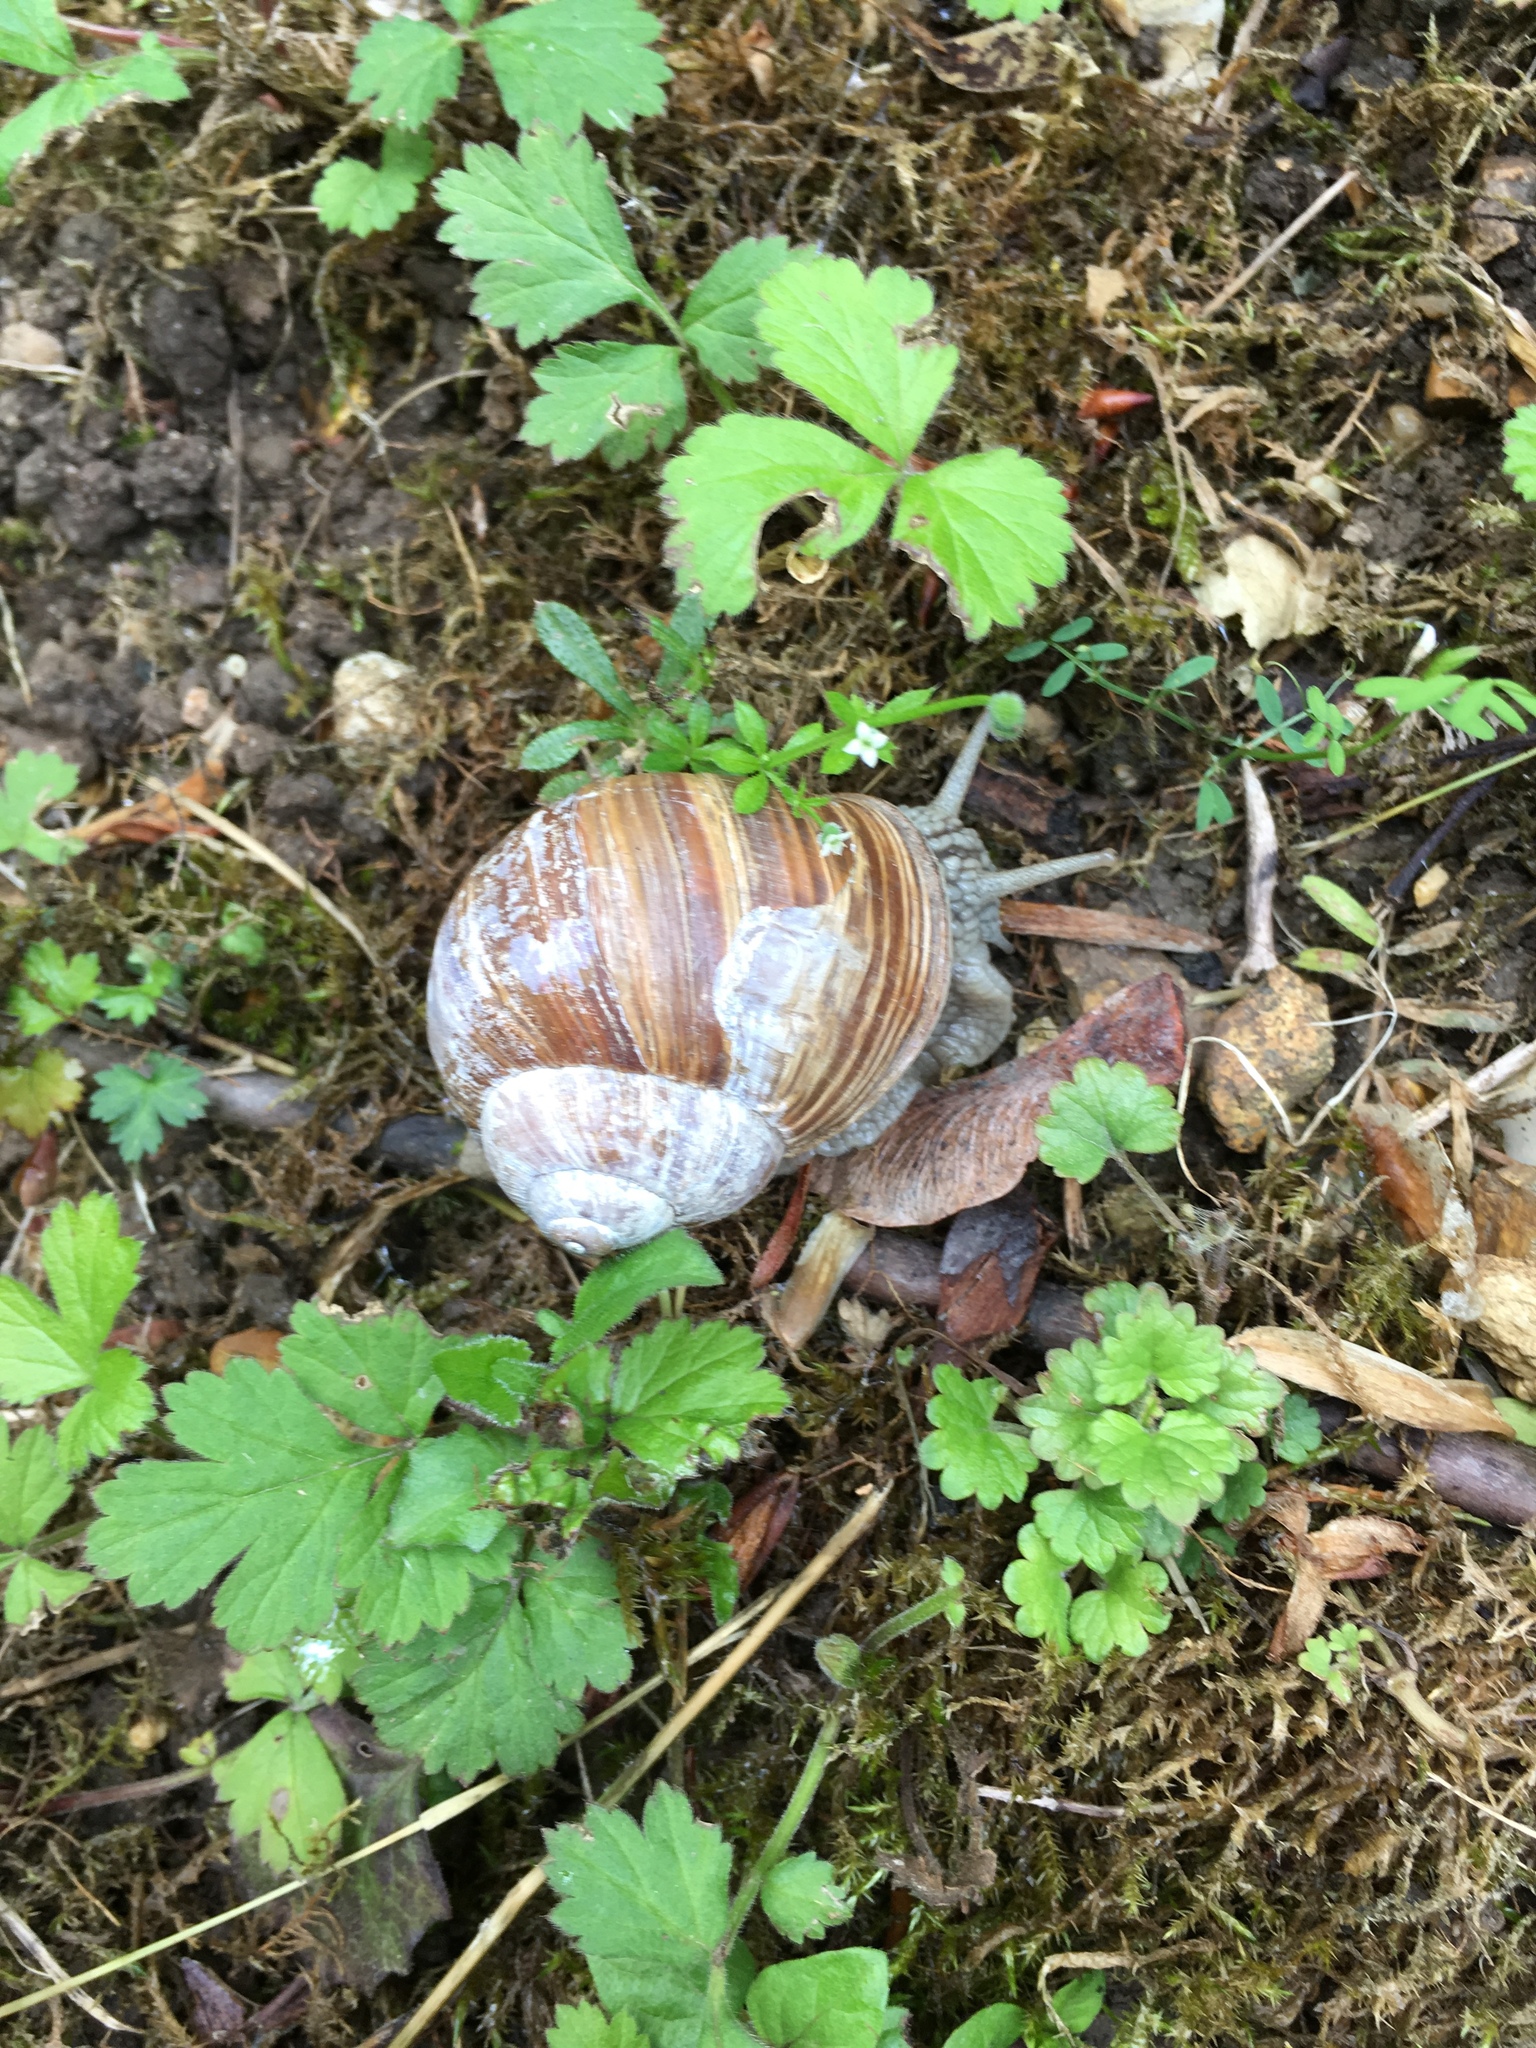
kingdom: Animalia
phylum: Mollusca
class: Gastropoda
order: Stylommatophora
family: Helicidae
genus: Helix
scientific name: Helix pomatia
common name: Roman snail
